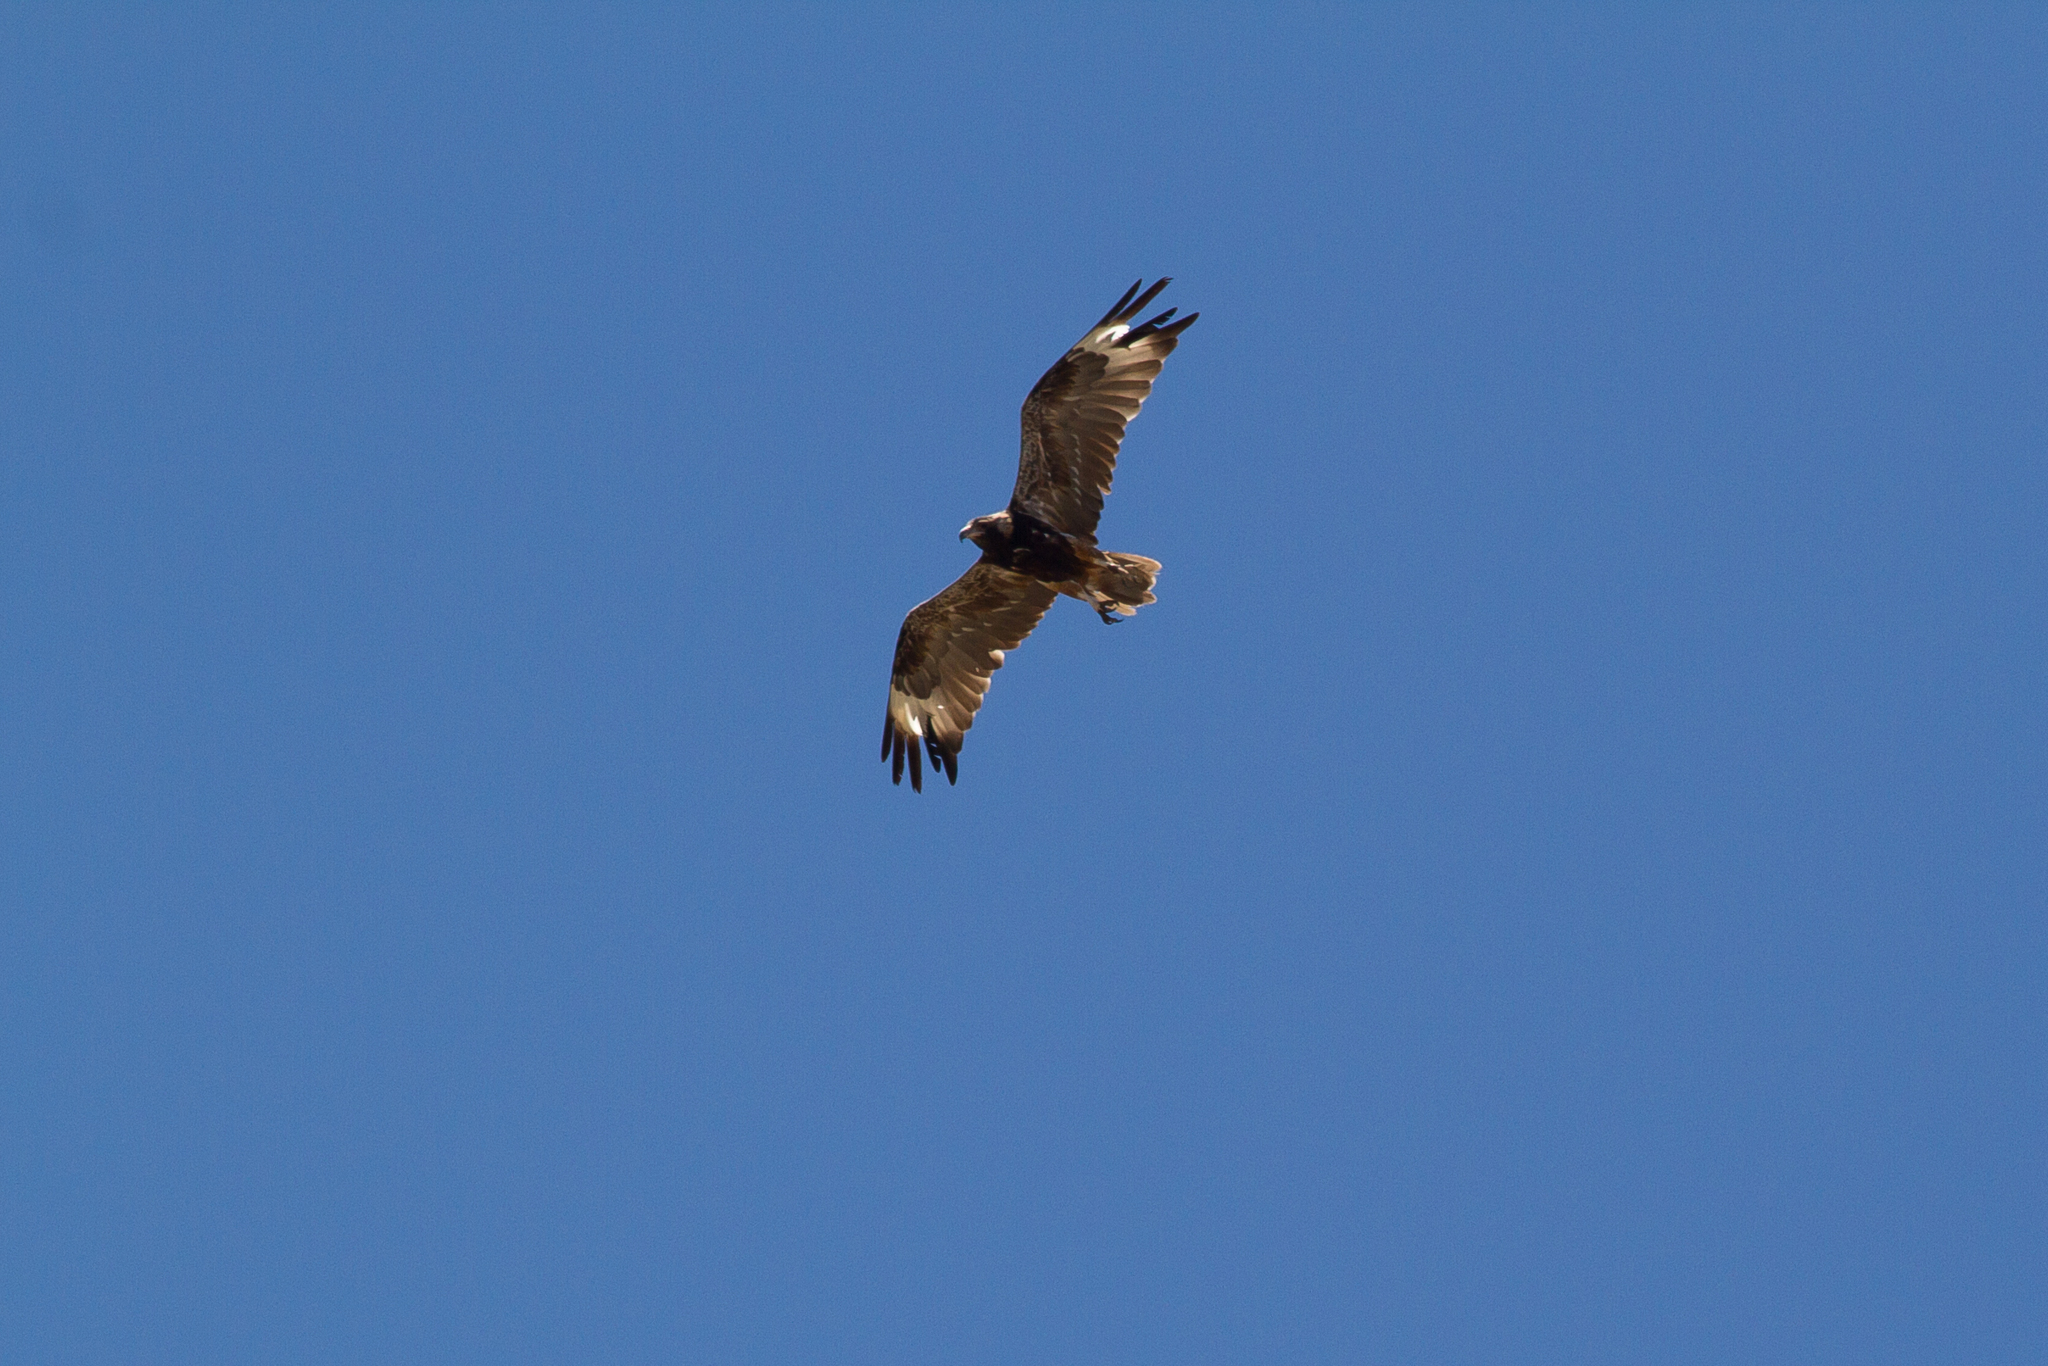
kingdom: Animalia
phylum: Chordata
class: Aves
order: Accipitriformes
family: Accipitridae
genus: Hamirostra
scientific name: Hamirostra melanosternon
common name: Black-breasted buzzard
